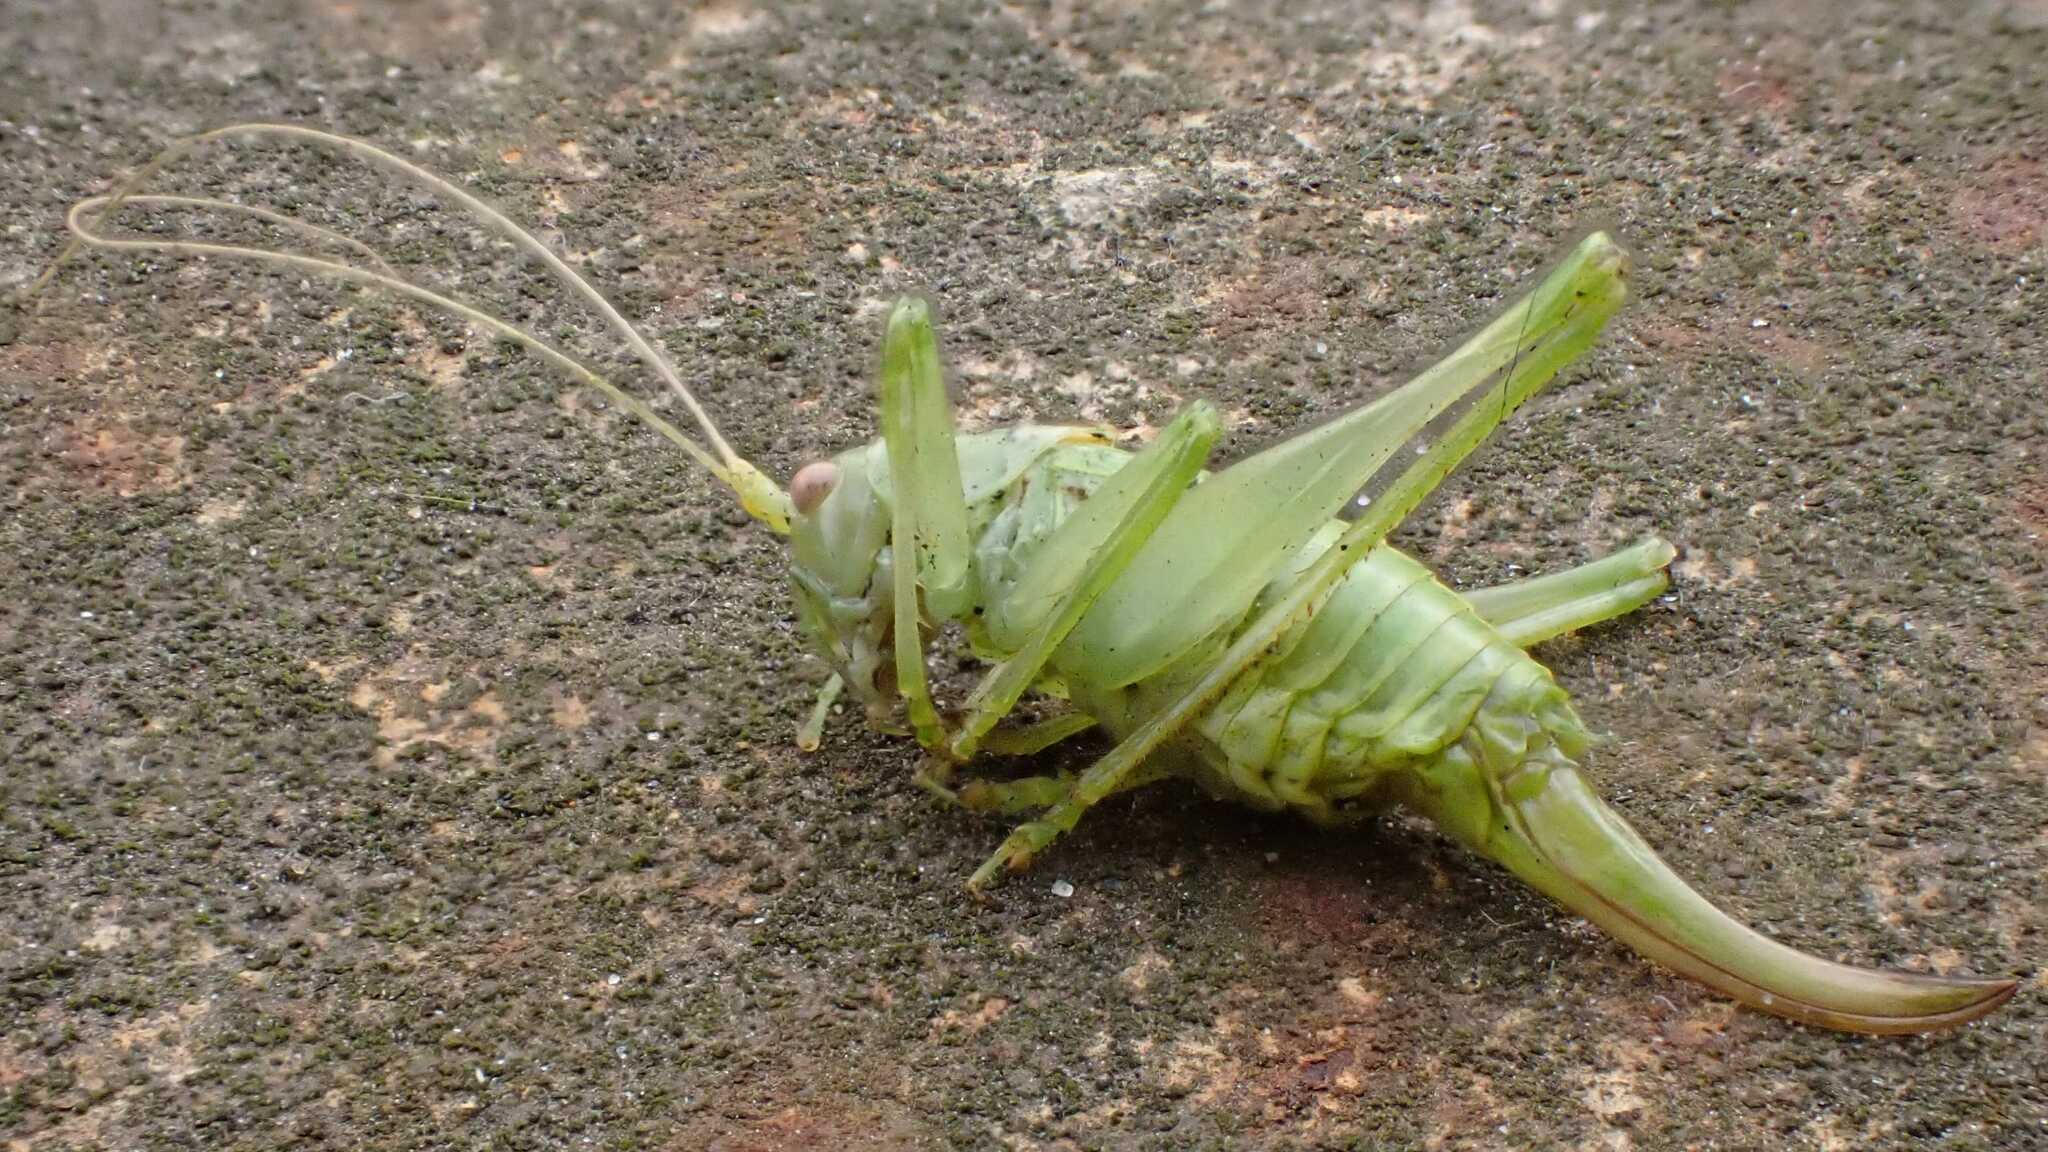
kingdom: Animalia
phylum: Arthropoda
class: Insecta
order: Orthoptera
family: Tettigoniidae
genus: Meconema
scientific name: Meconema meridionale
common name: Southern oak bush-cricket
